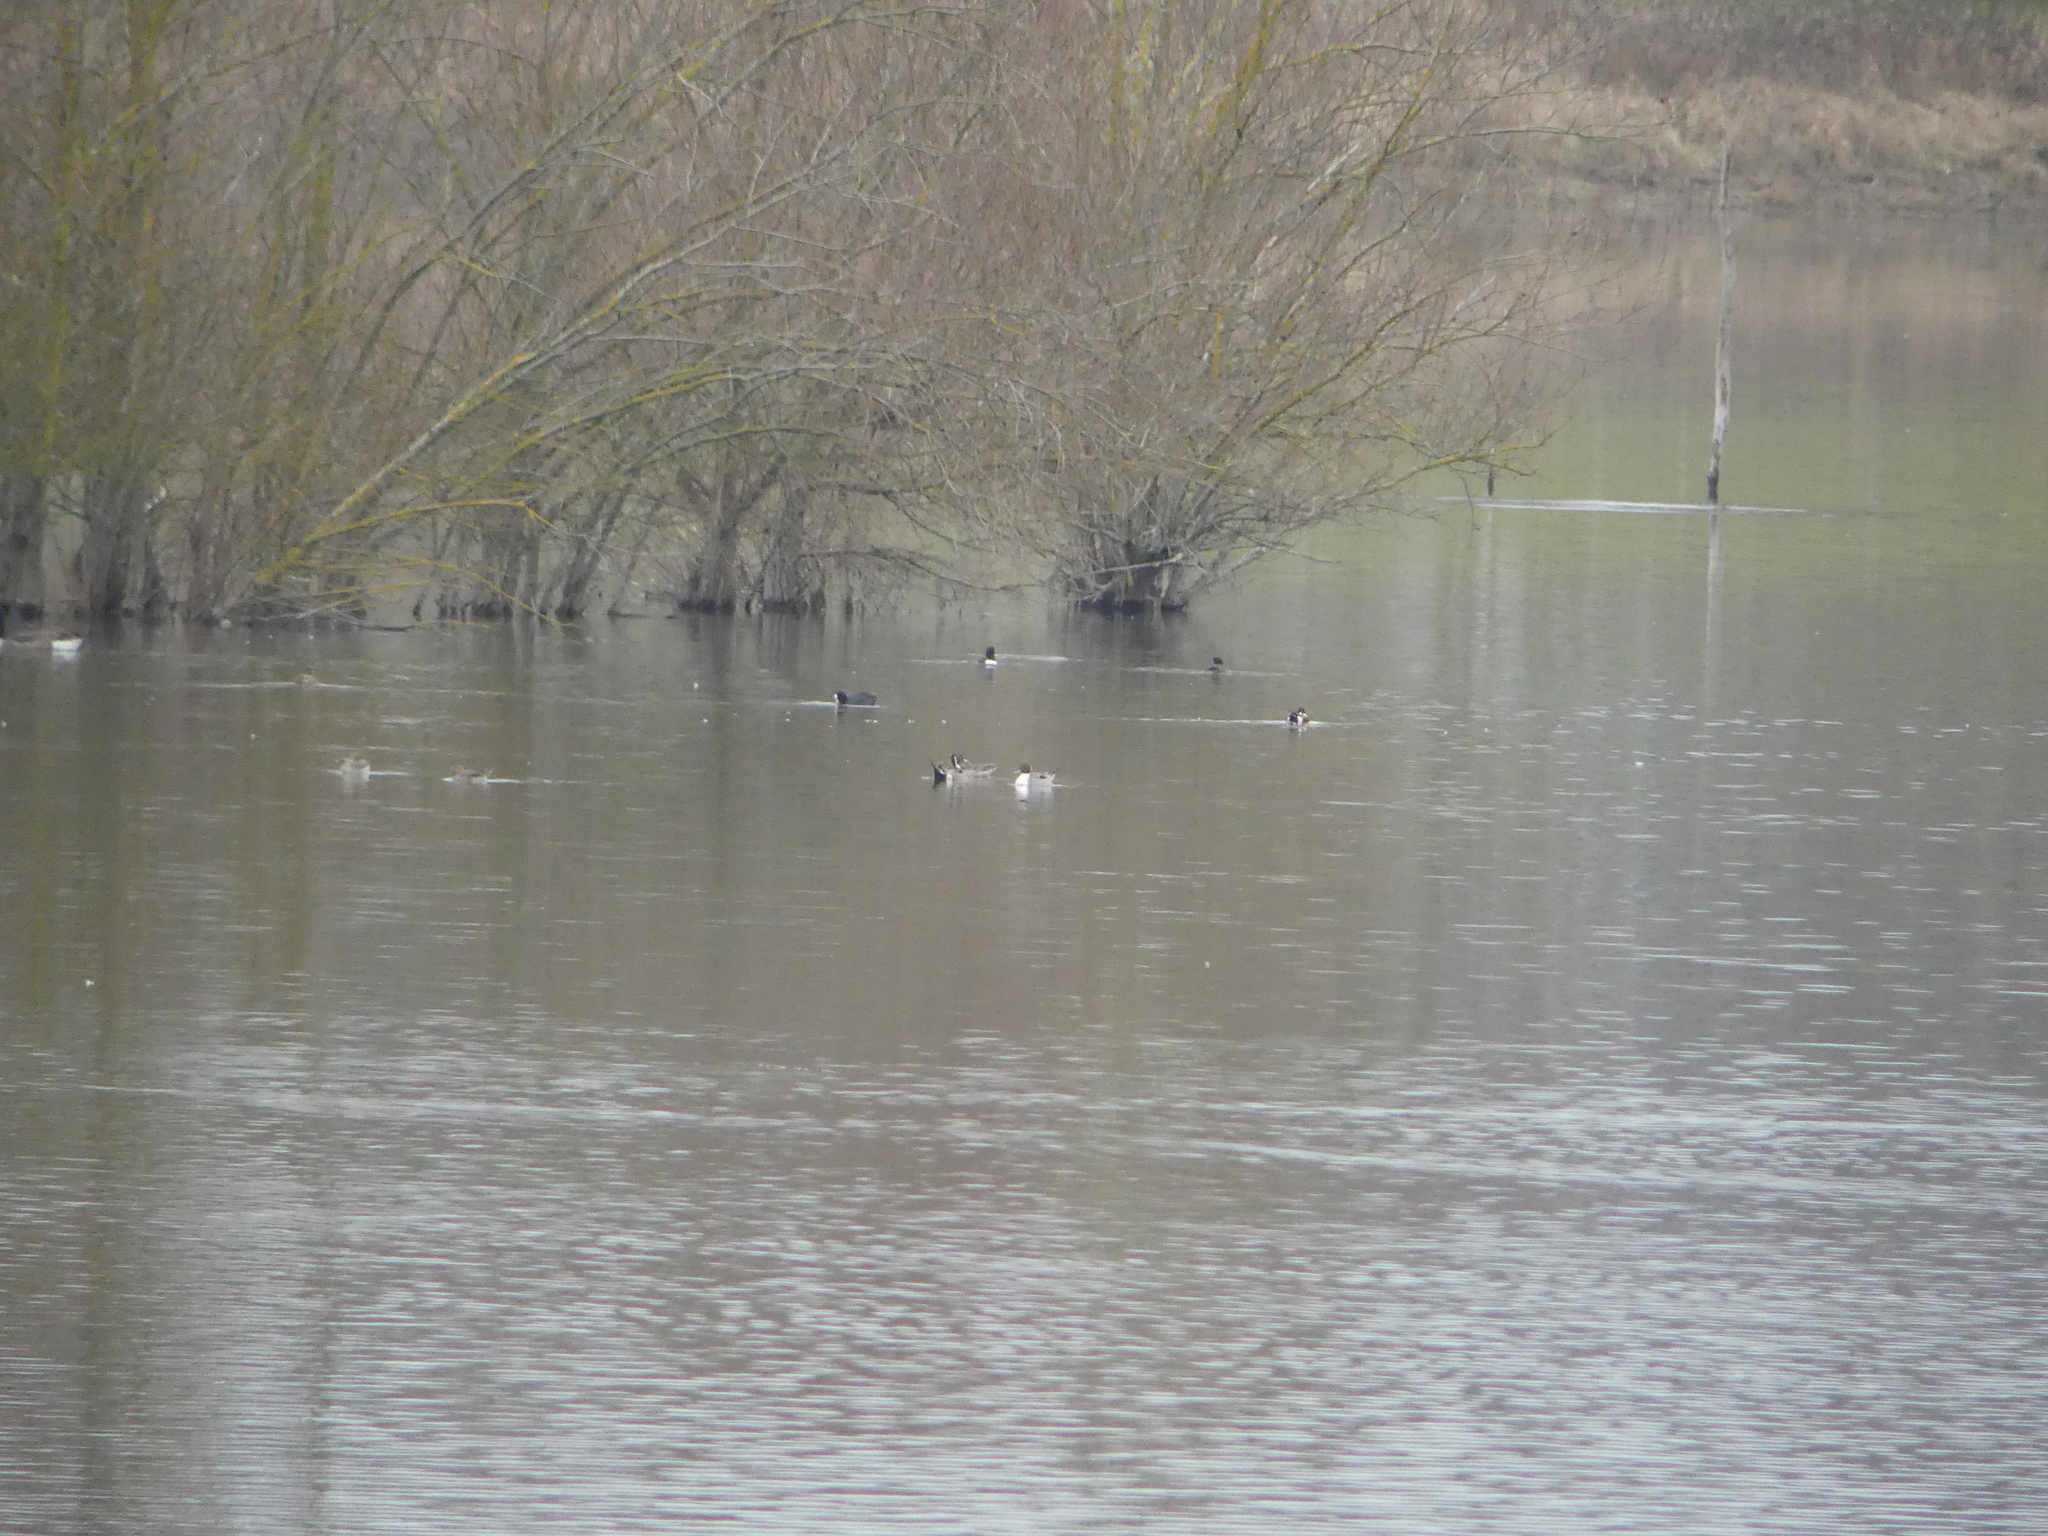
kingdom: Animalia
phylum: Chordata
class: Aves
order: Anseriformes
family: Anatidae
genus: Anas
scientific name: Anas acuta
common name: Northern pintail
